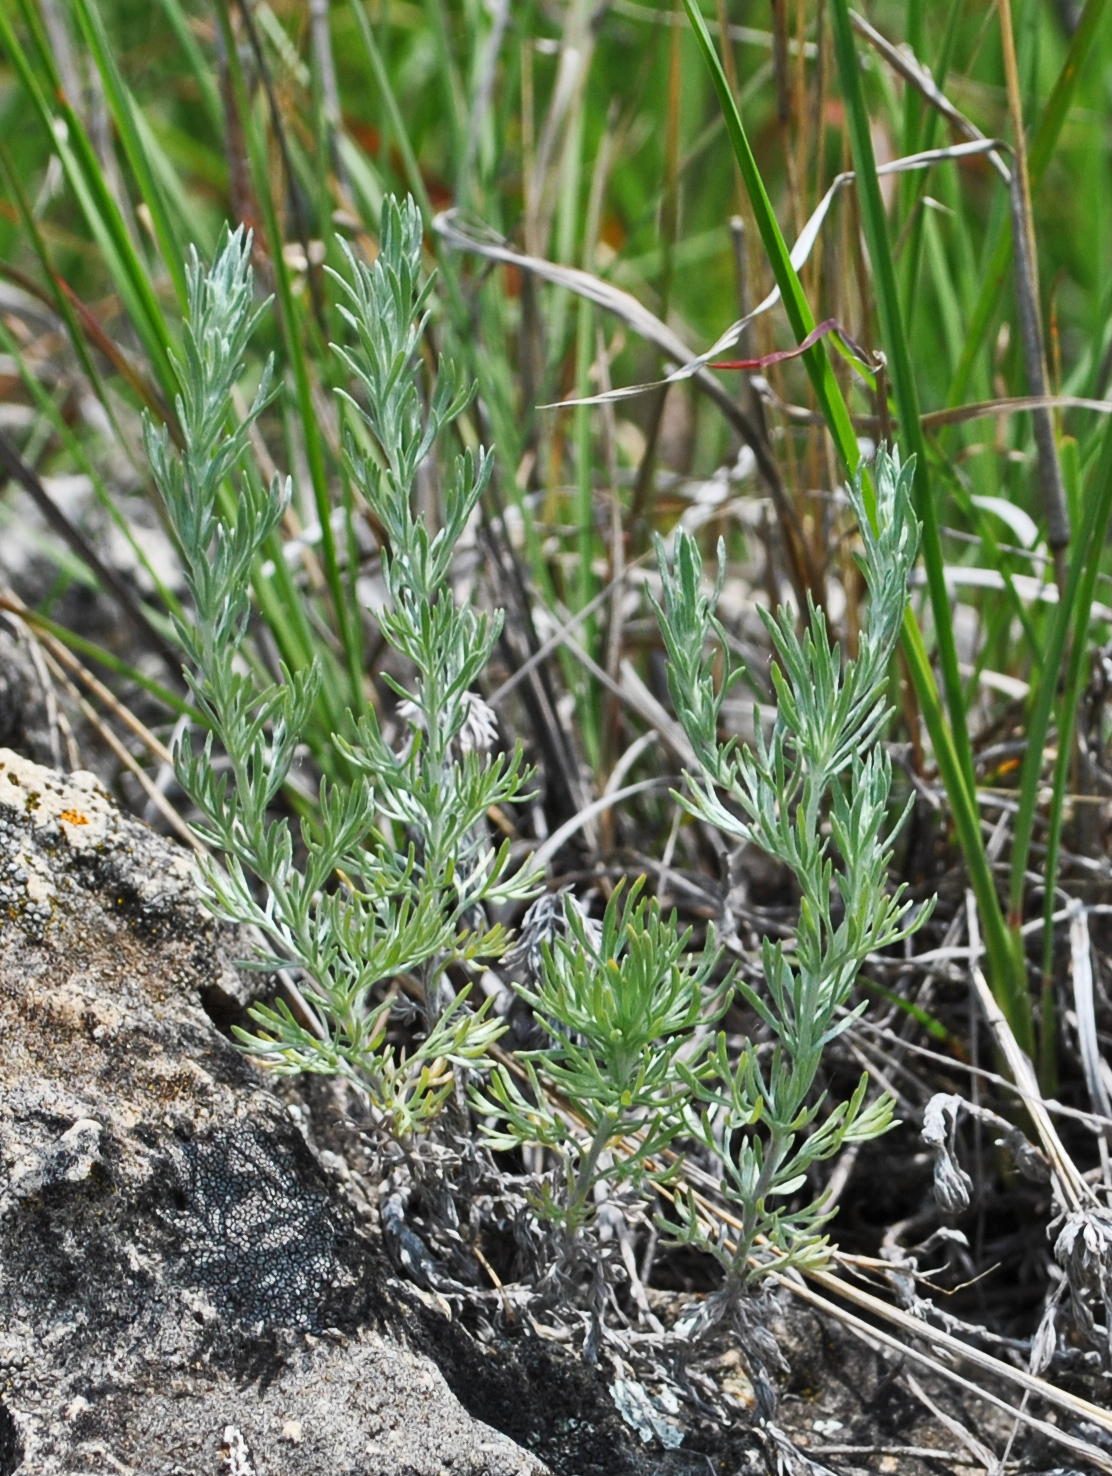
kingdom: Plantae
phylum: Tracheophyta
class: Magnoliopsida
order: Asterales
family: Asteraceae
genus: Artemisia
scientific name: Artemisia frigida
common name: Prairie sagewort
